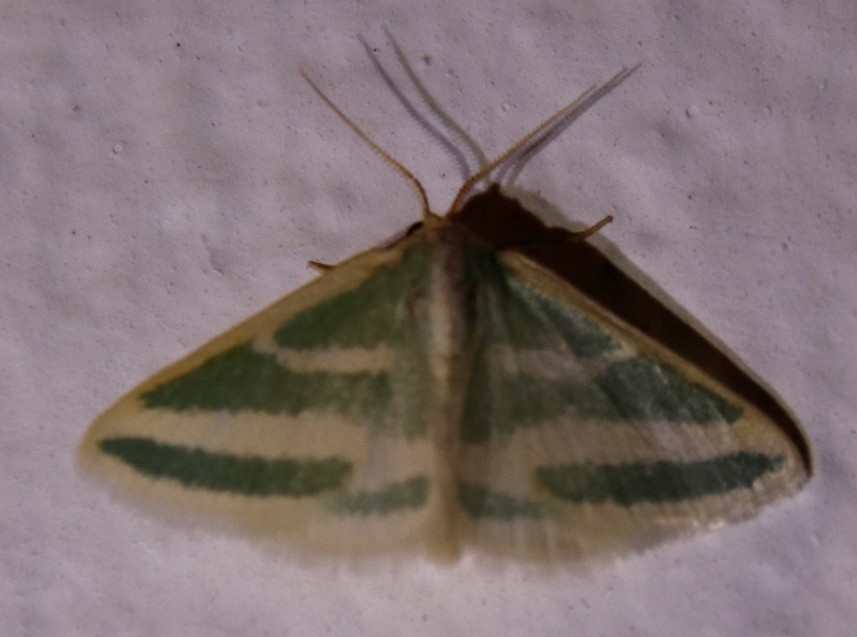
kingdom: Animalia
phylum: Arthropoda
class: Insecta
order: Lepidoptera
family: Geometridae
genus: Mixocera
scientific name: Mixocera frustratoria
